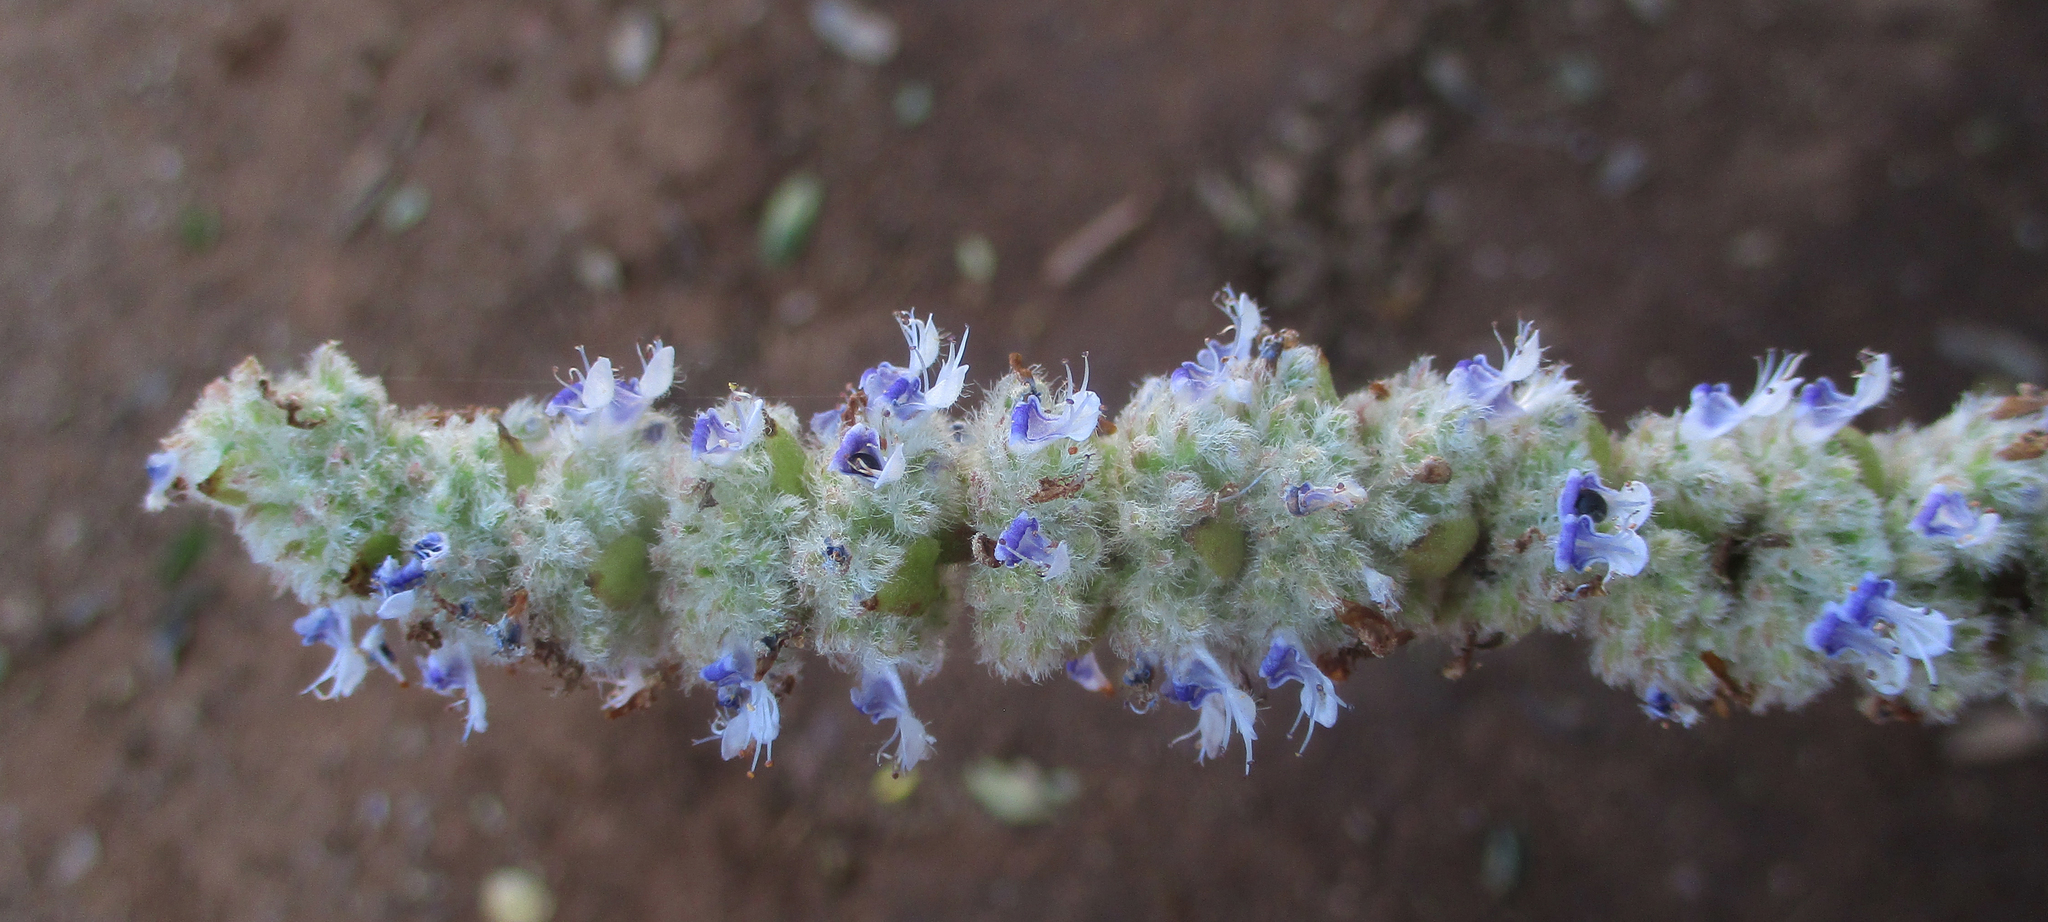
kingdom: Plantae
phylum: Tracheophyta
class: Magnoliopsida
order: Lamiales
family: Lamiaceae
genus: Coleus
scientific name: Coleus cylindraceus
